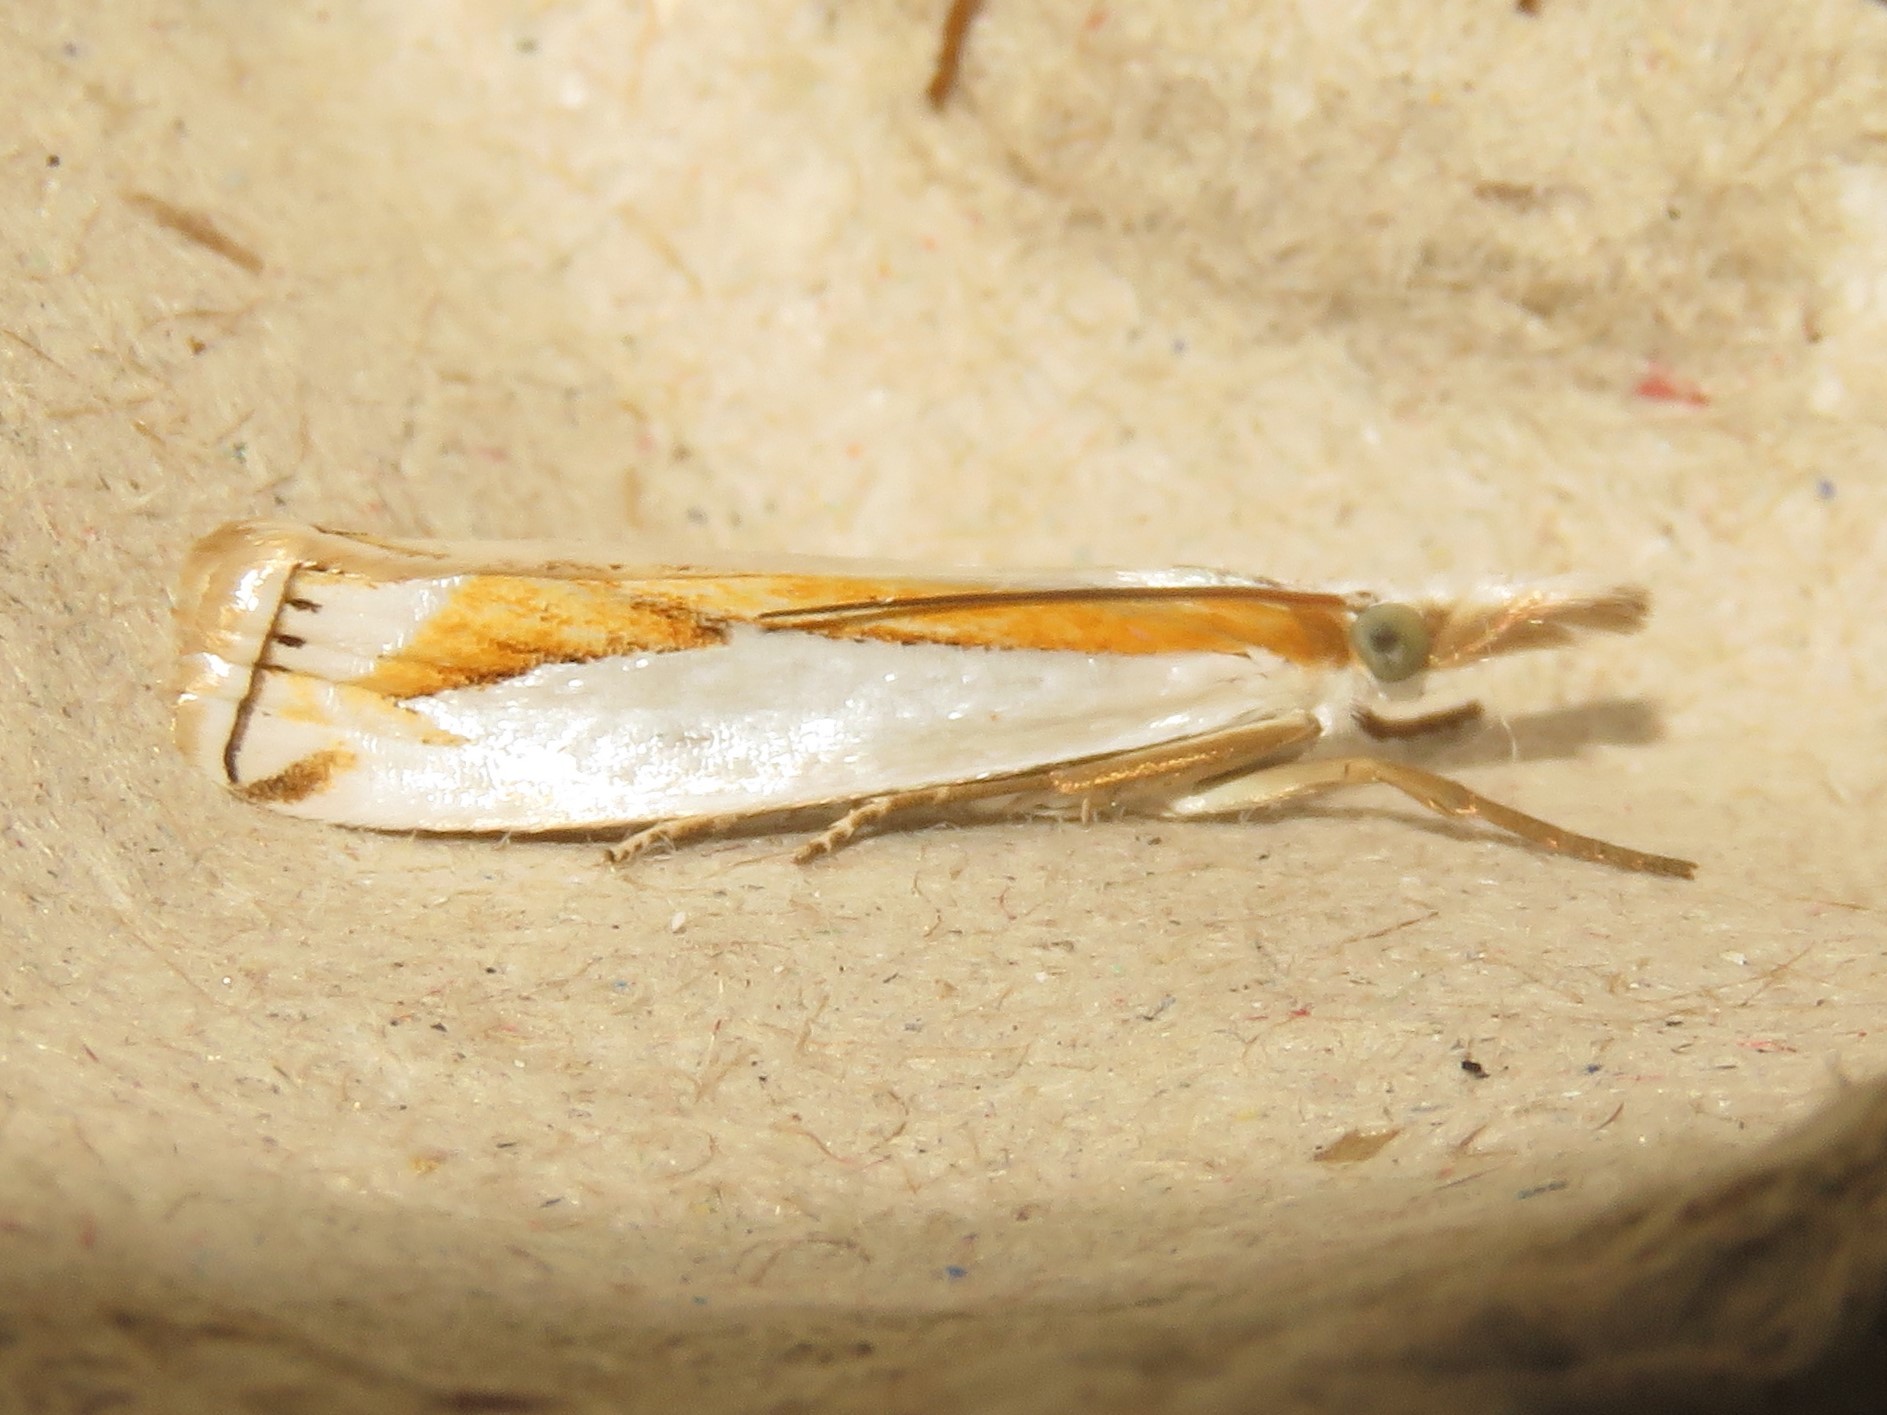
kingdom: Animalia
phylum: Arthropoda
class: Insecta
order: Lepidoptera
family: Crambidae
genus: Crambus
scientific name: Crambus girardellus
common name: Girard's grass-veneer
